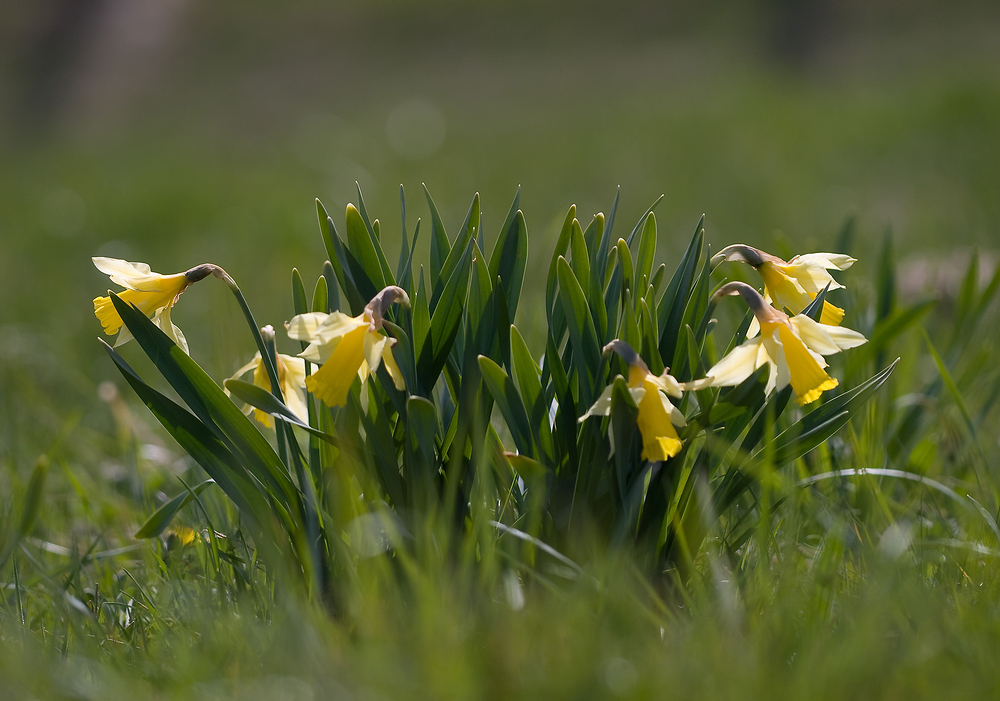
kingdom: Plantae
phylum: Tracheophyta
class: Liliopsida
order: Asparagales
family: Amaryllidaceae
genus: Narcissus
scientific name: Narcissus pseudonarcissus
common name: Daffodil
